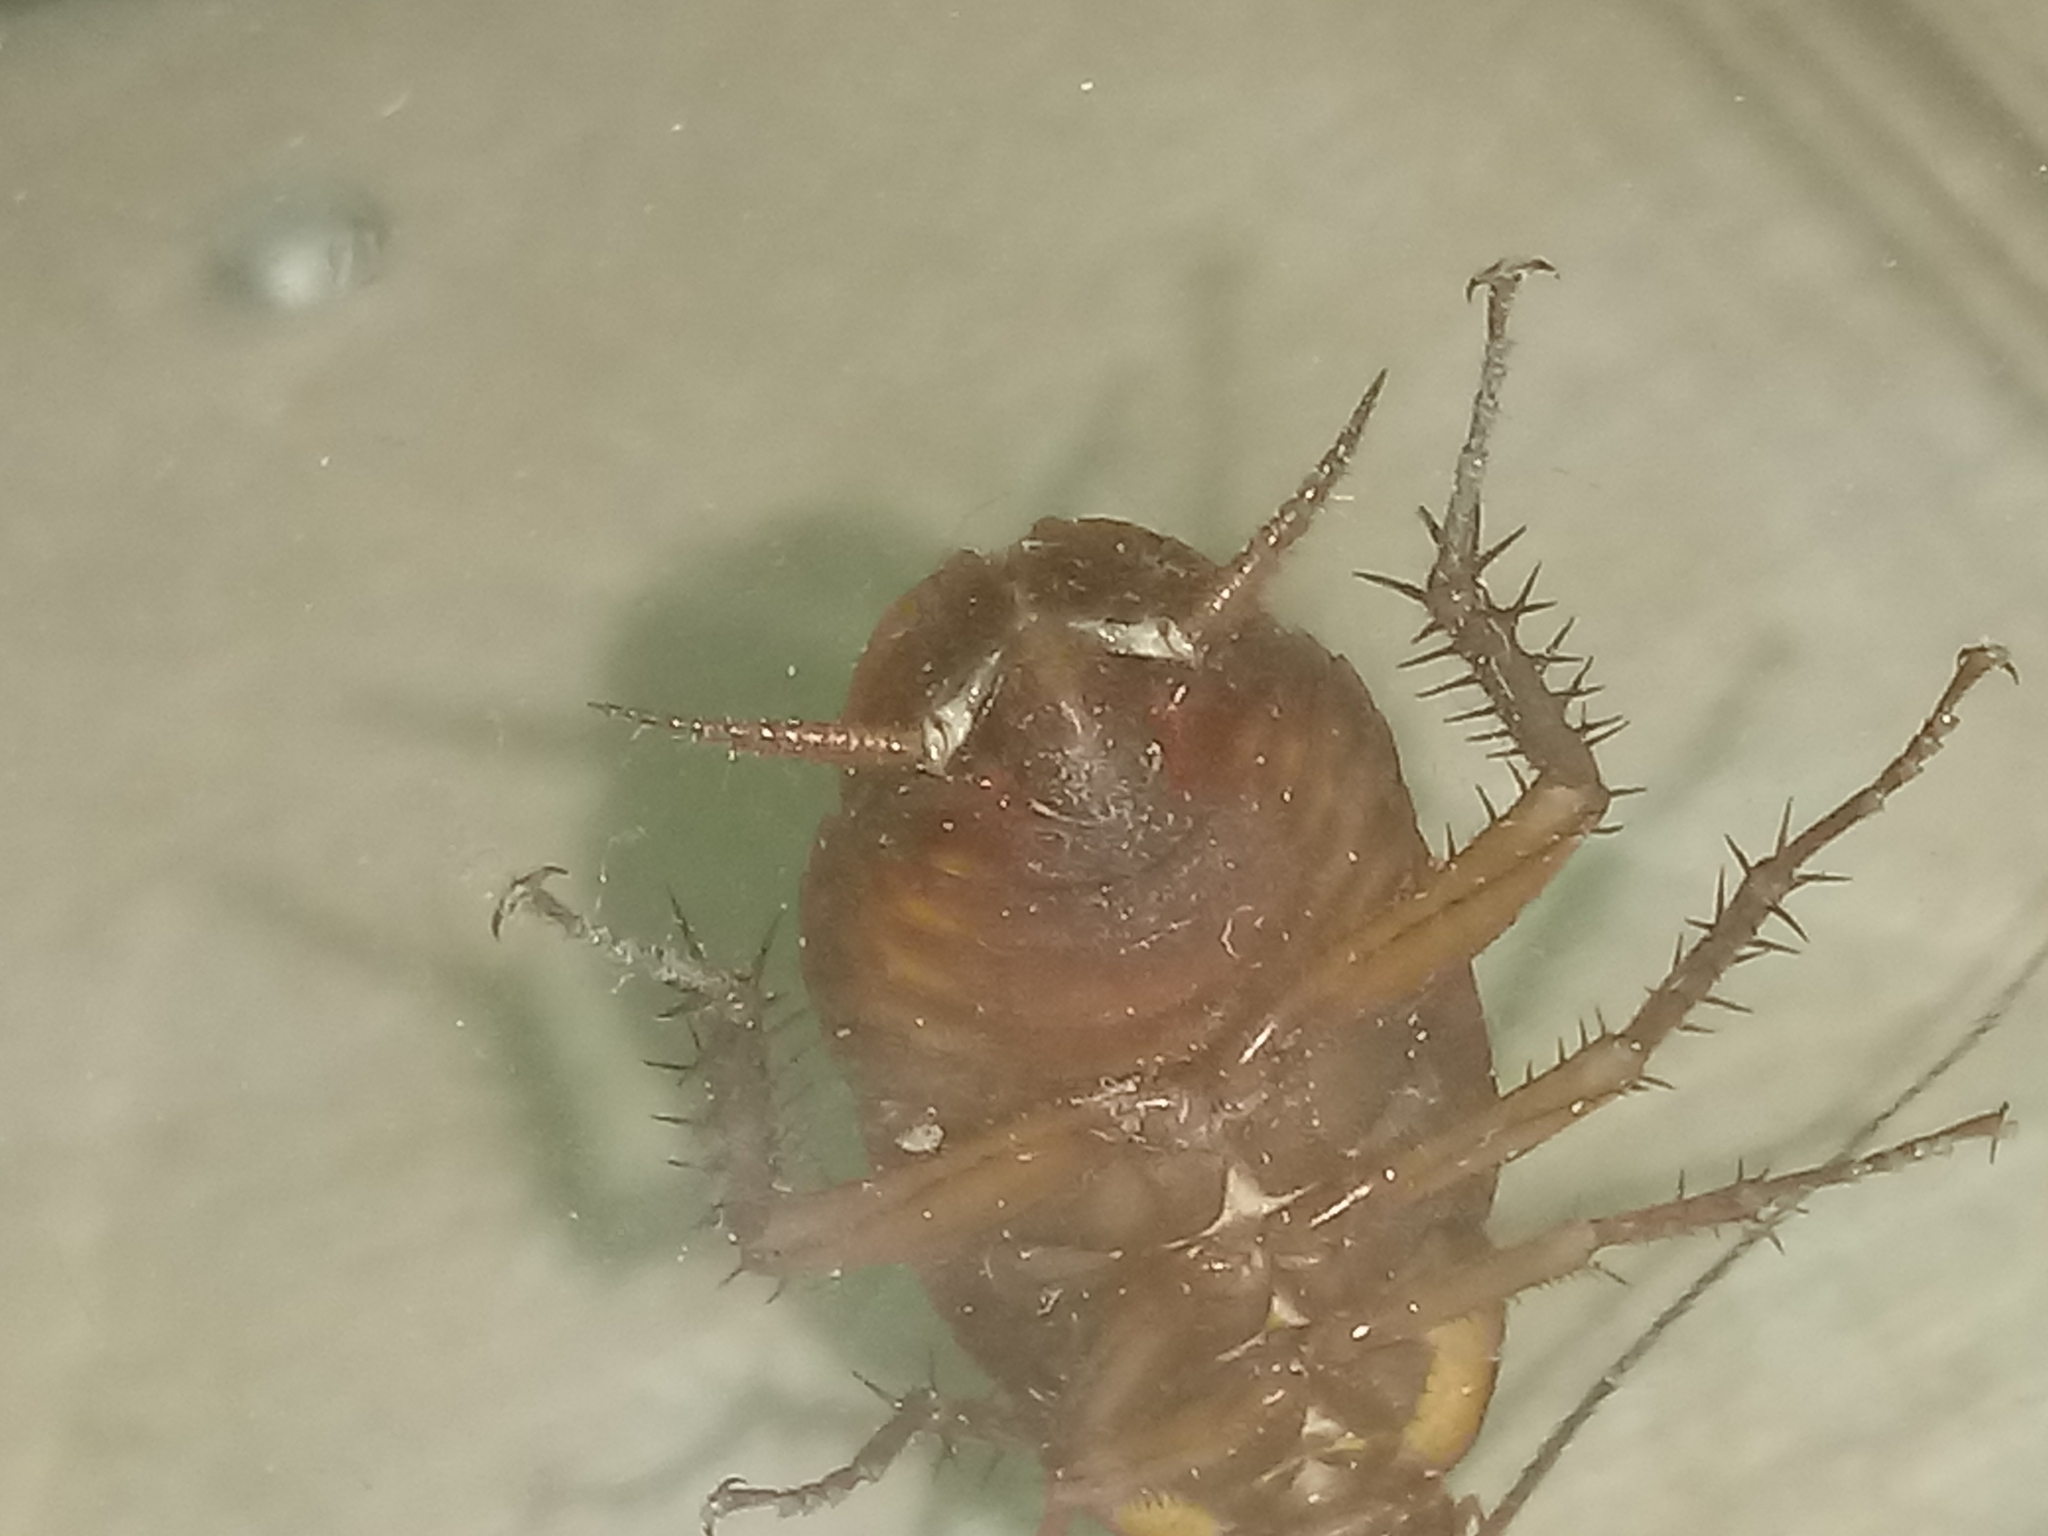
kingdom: Animalia
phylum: Arthropoda
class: Insecta
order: Blattodea
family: Blattidae
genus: Periplaneta
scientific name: Periplaneta americana
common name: American cockroach
